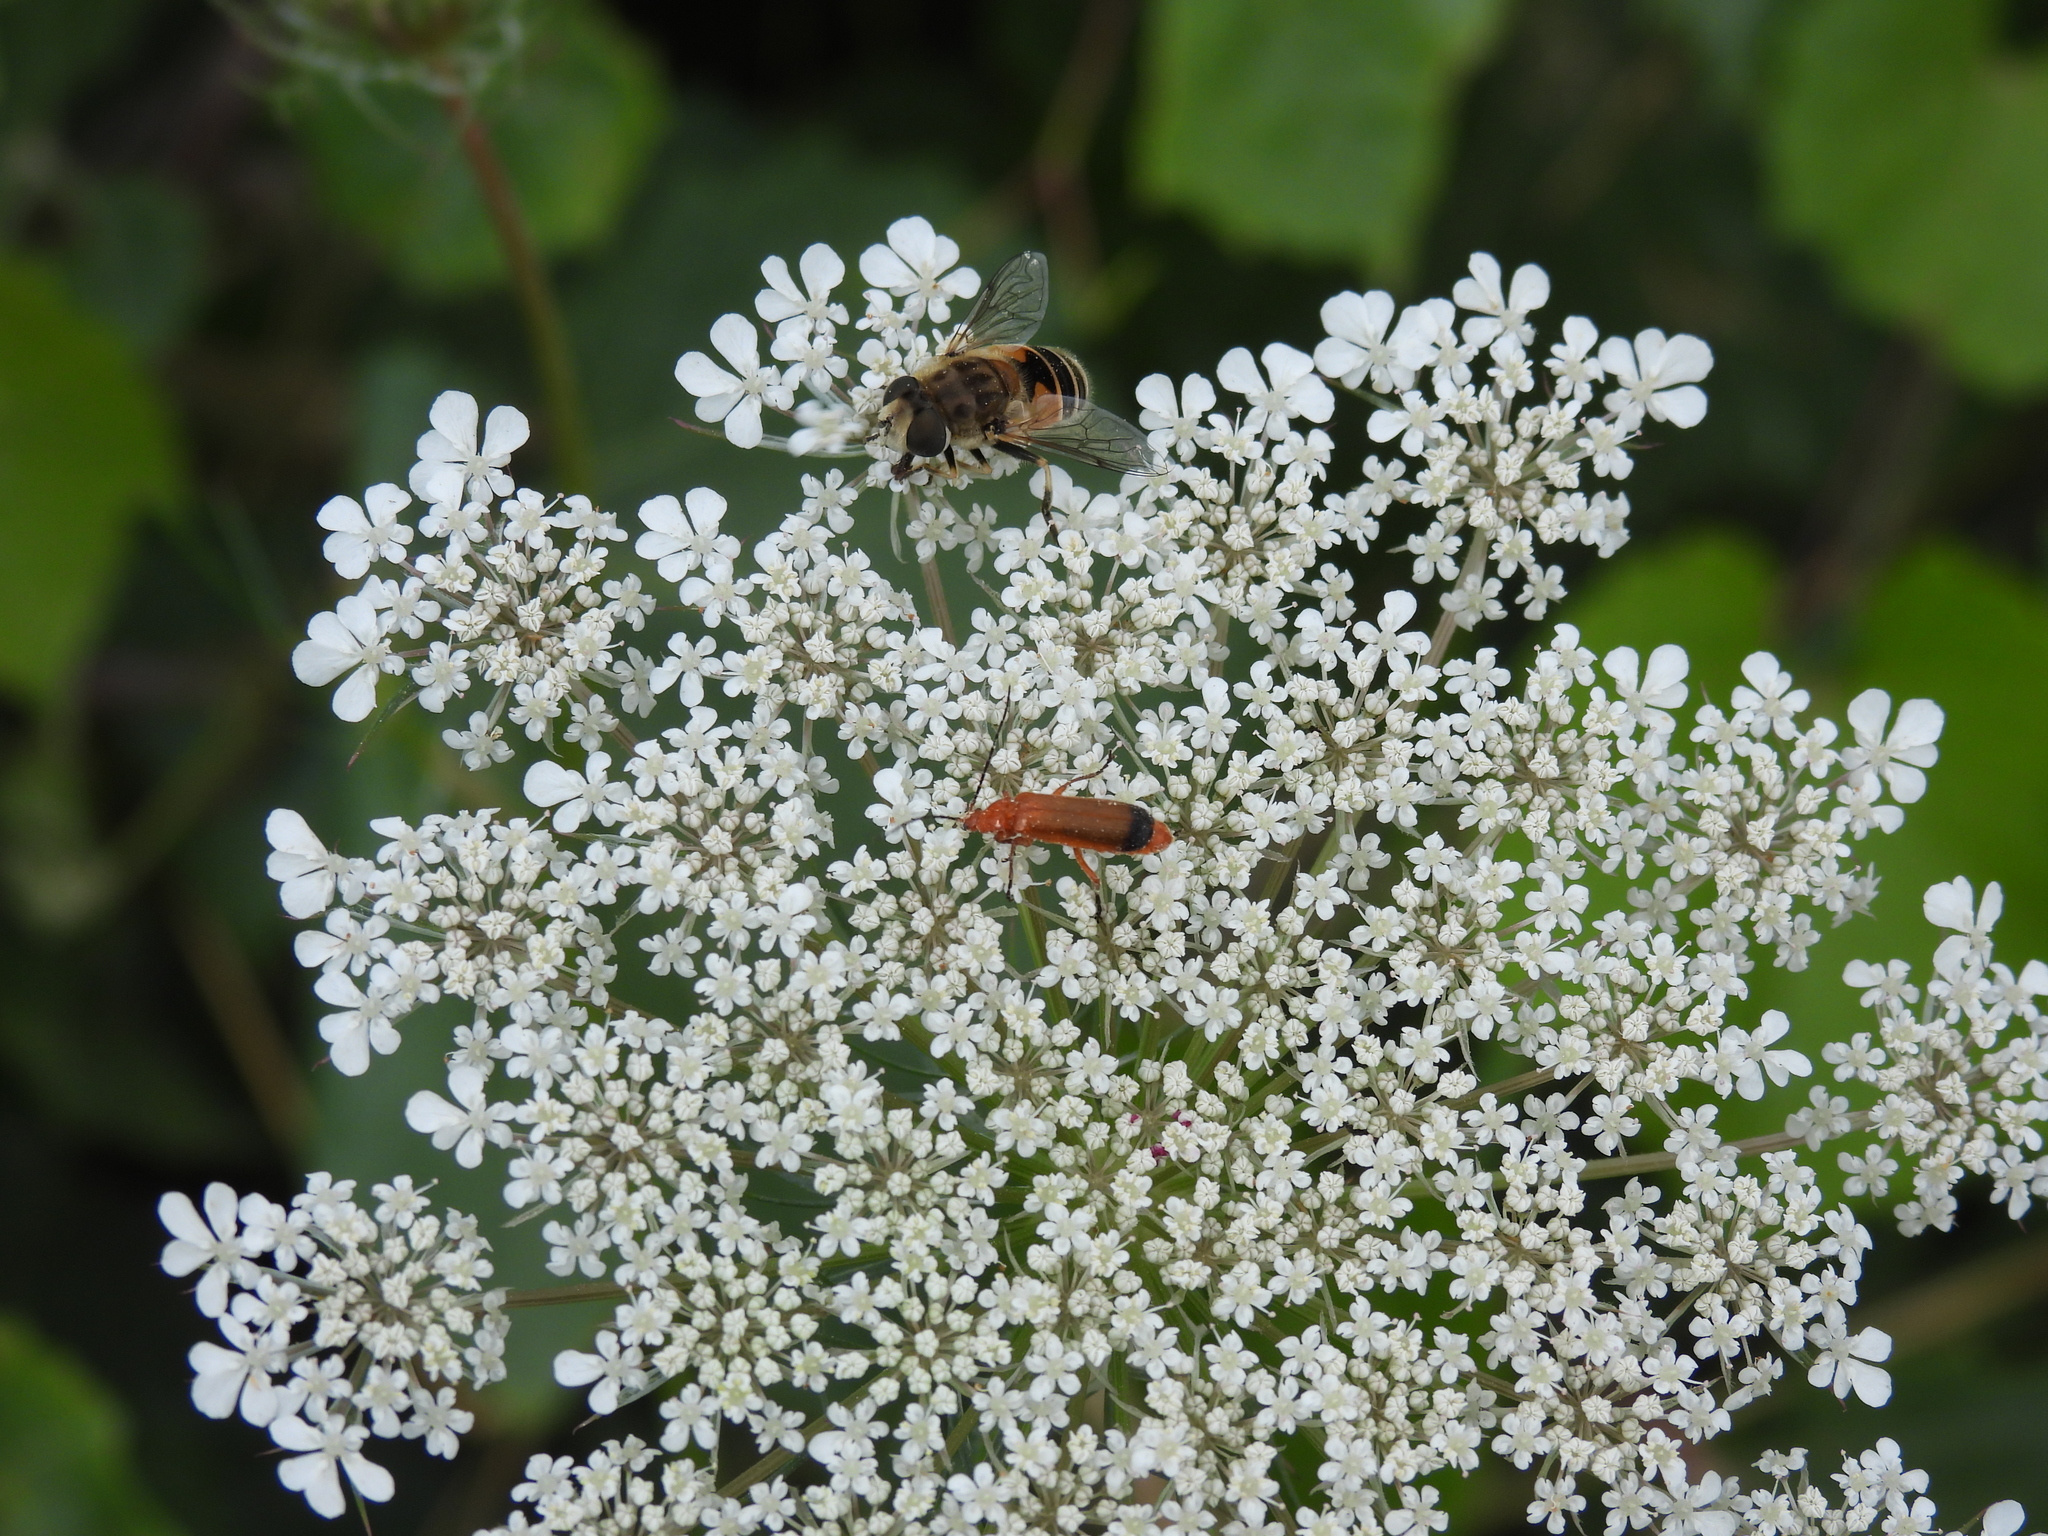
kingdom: Animalia
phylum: Arthropoda
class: Insecta
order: Diptera
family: Syrphidae
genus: Eristalis
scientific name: Eristalis arbustorum
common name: Hover fly
